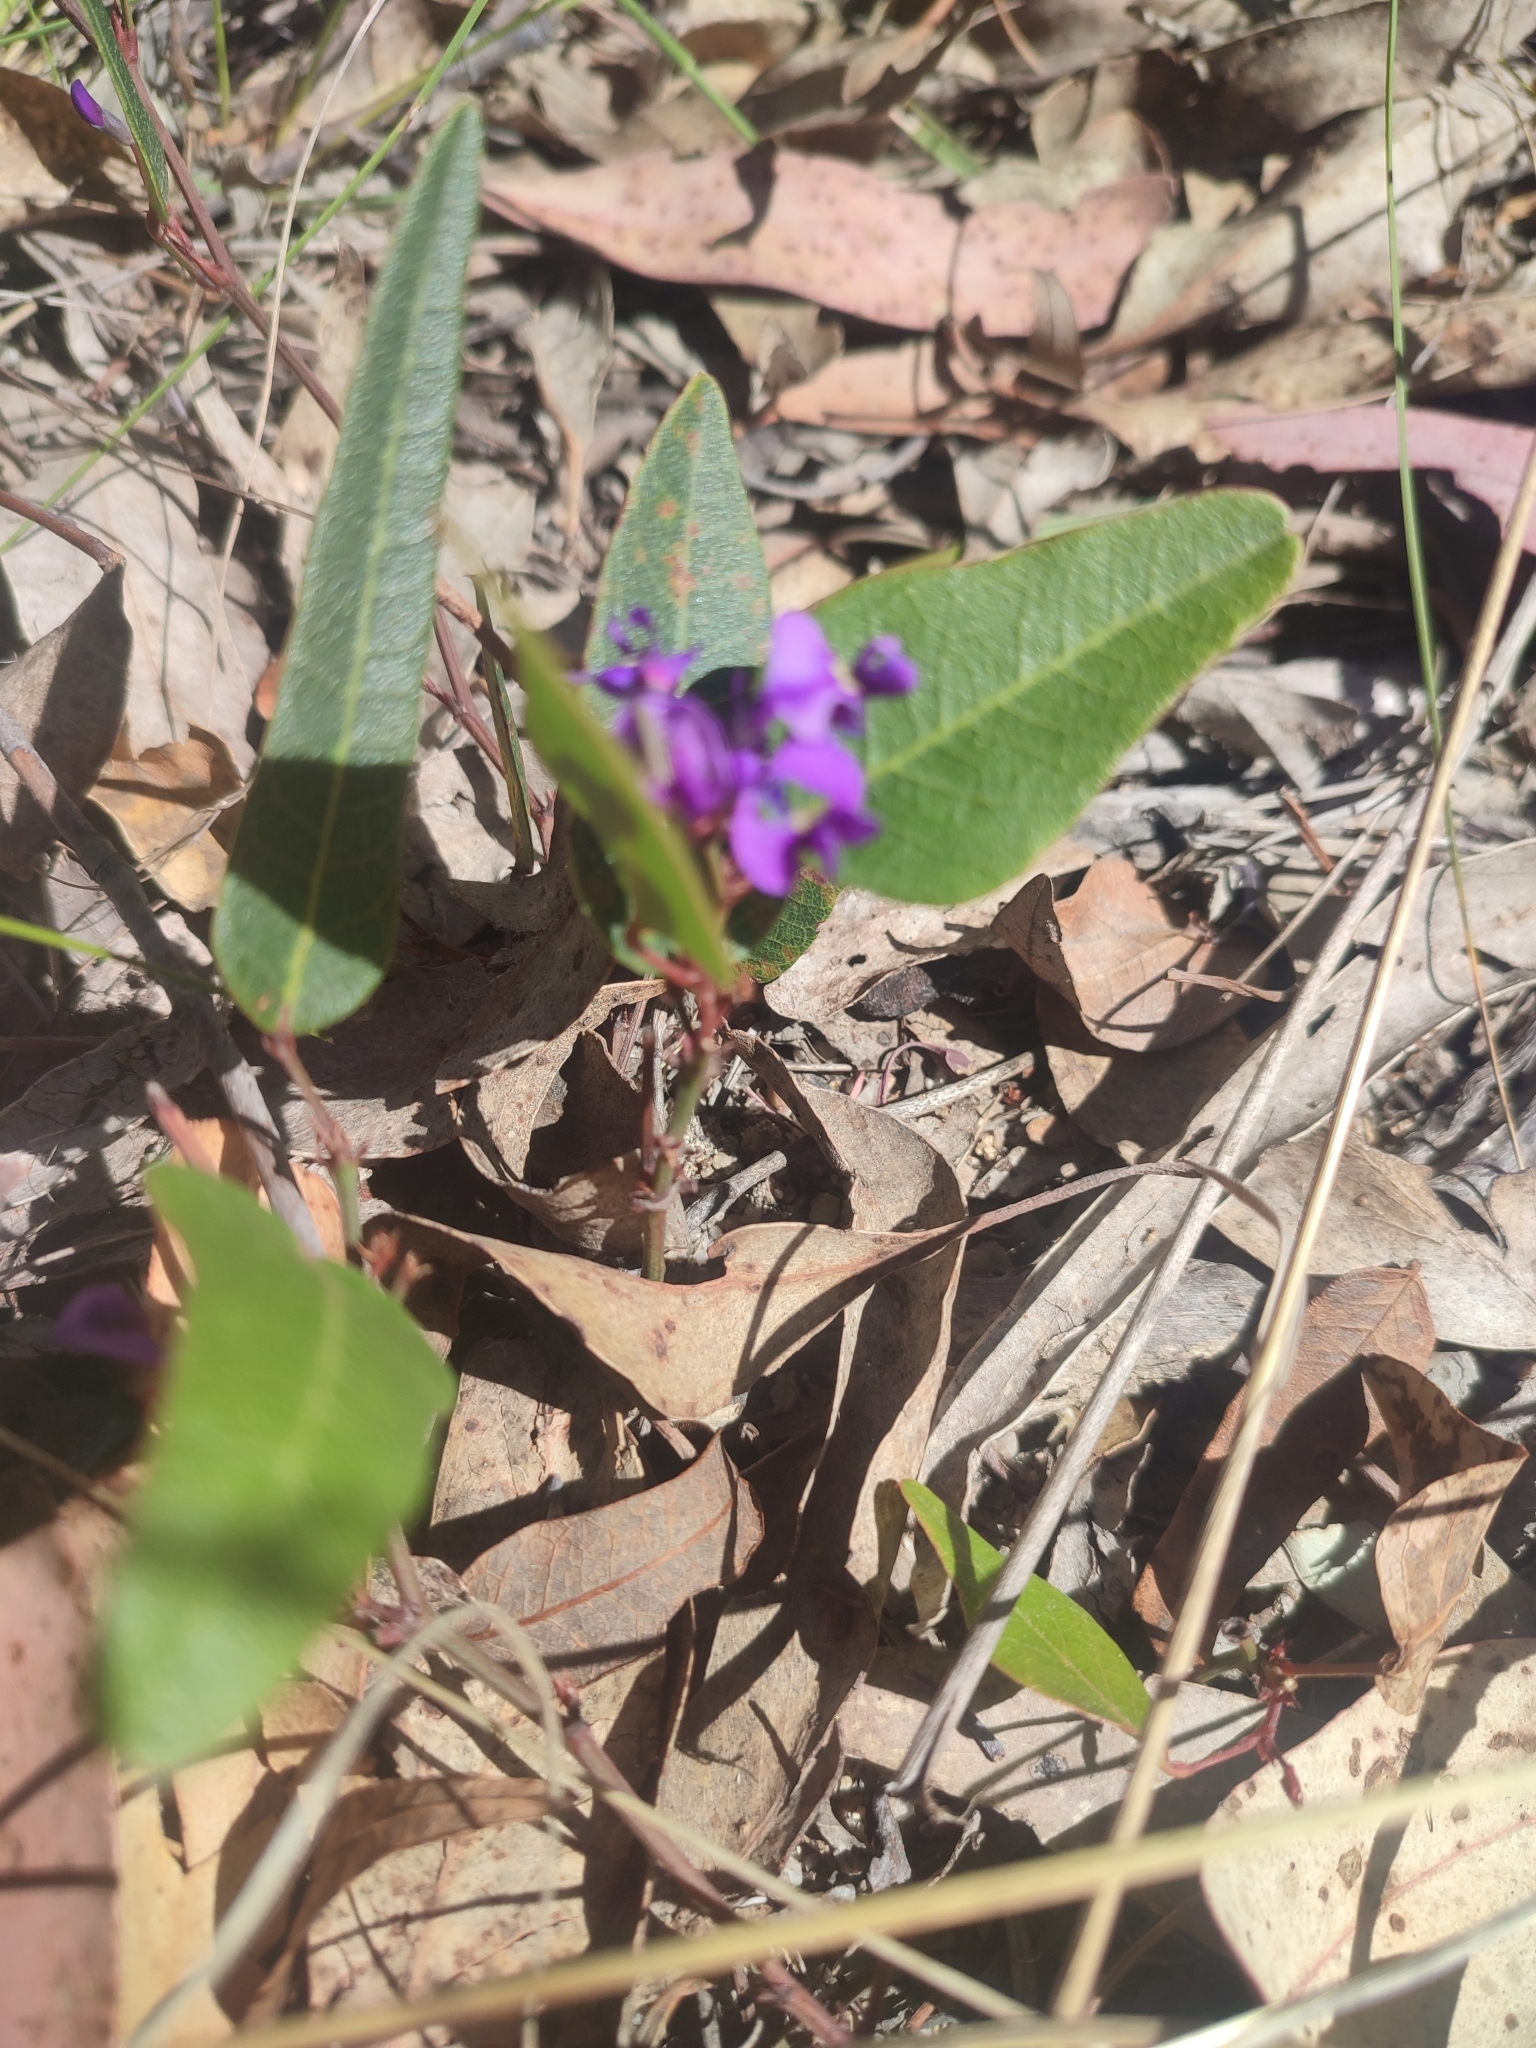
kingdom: Plantae
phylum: Tracheophyta
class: Magnoliopsida
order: Fabales
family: Fabaceae
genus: Hardenbergia
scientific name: Hardenbergia violacea
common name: Coral-pea
